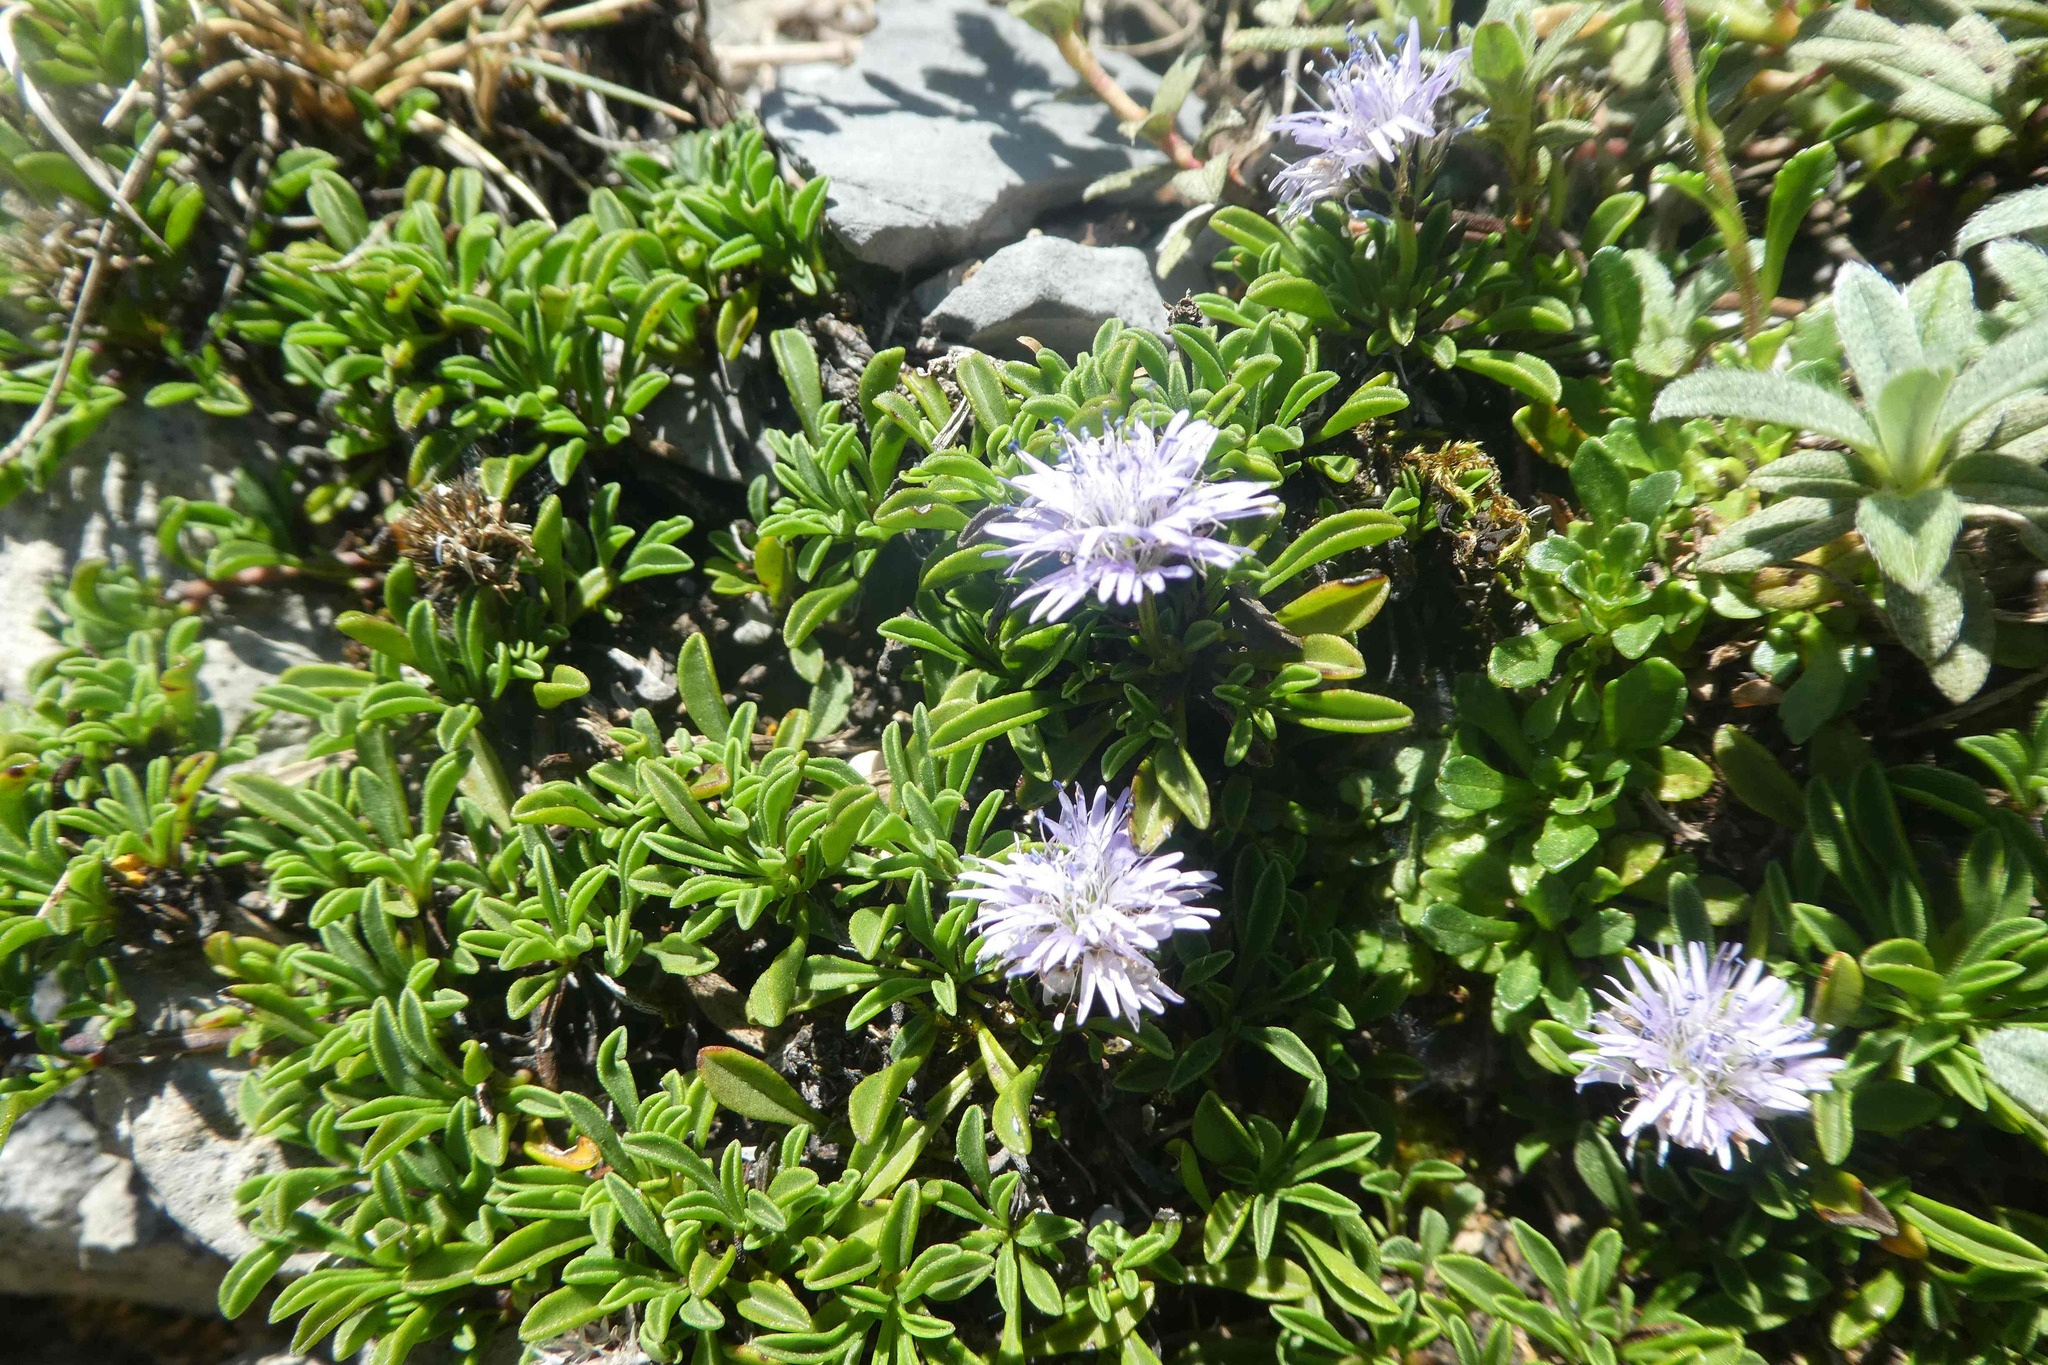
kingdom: Plantae
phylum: Tracheophyta
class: Magnoliopsida
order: Lamiales
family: Plantaginaceae
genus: Globularia
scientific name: Globularia repens
